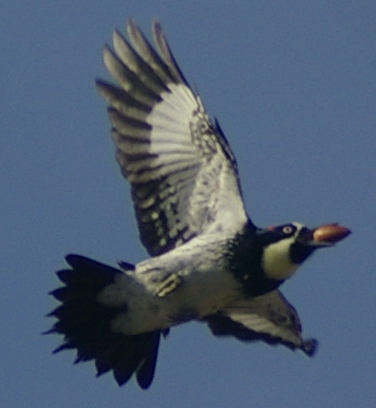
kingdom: Animalia
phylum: Chordata
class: Aves
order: Piciformes
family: Picidae
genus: Melanerpes
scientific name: Melanerpes formicivorus
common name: Acorn woodpecker
